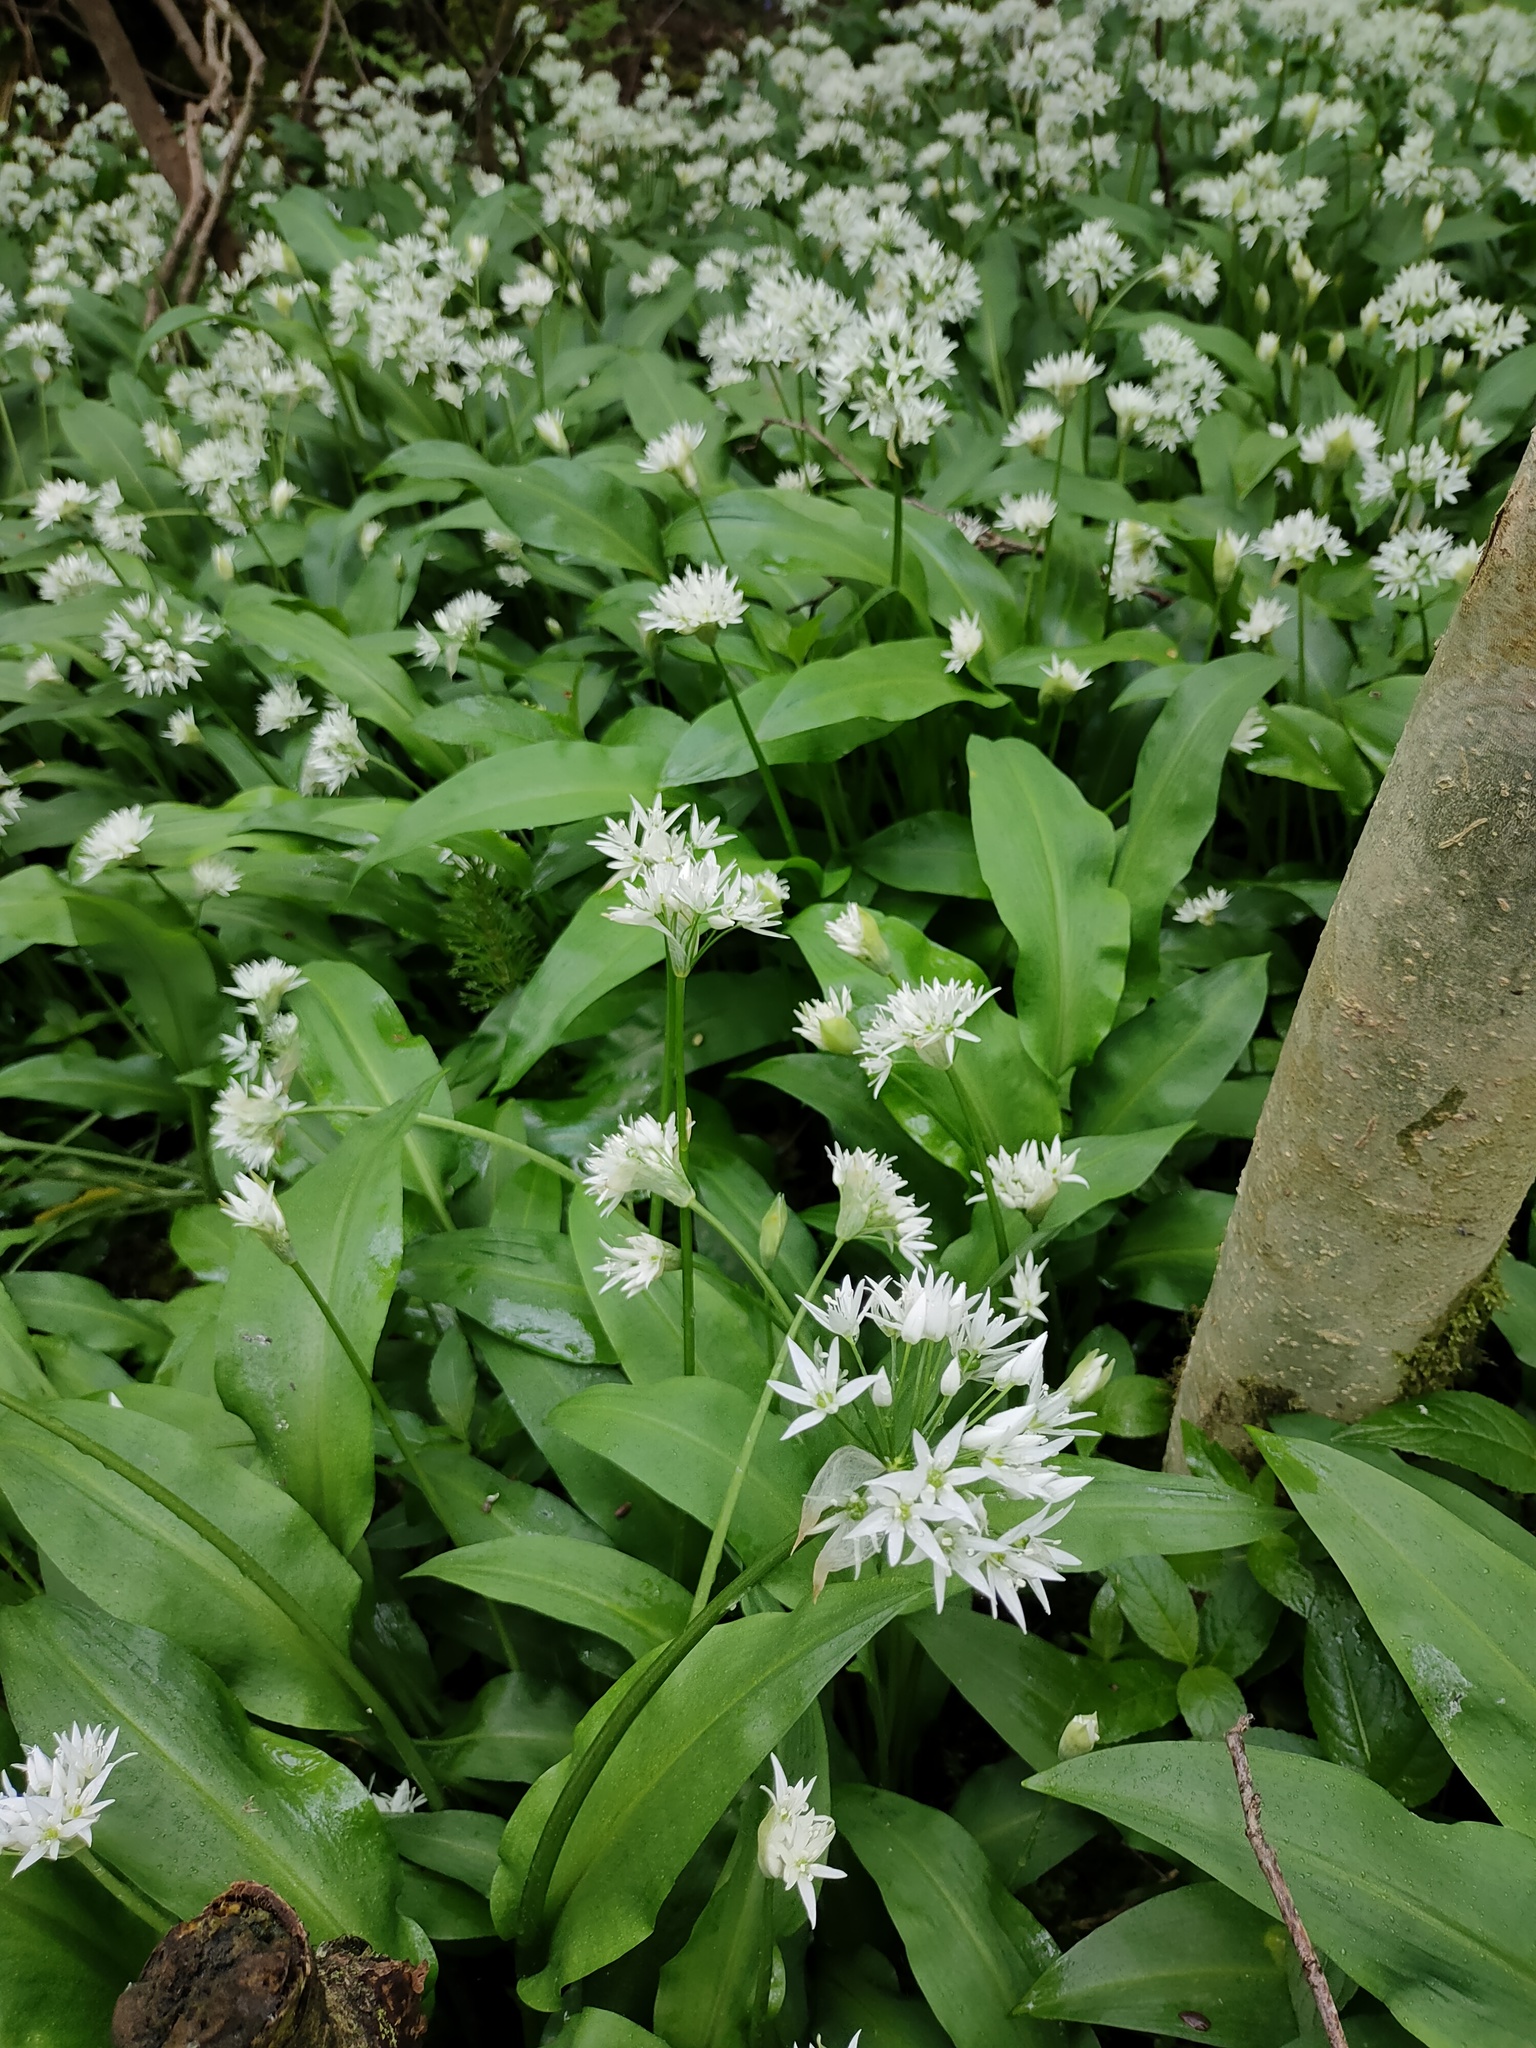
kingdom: Plantae
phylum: Tracheophyta
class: Liliopsida
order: Asparagales
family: Amaryllidaceae
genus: Allium
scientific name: Allium ursinum
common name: Ramsons
